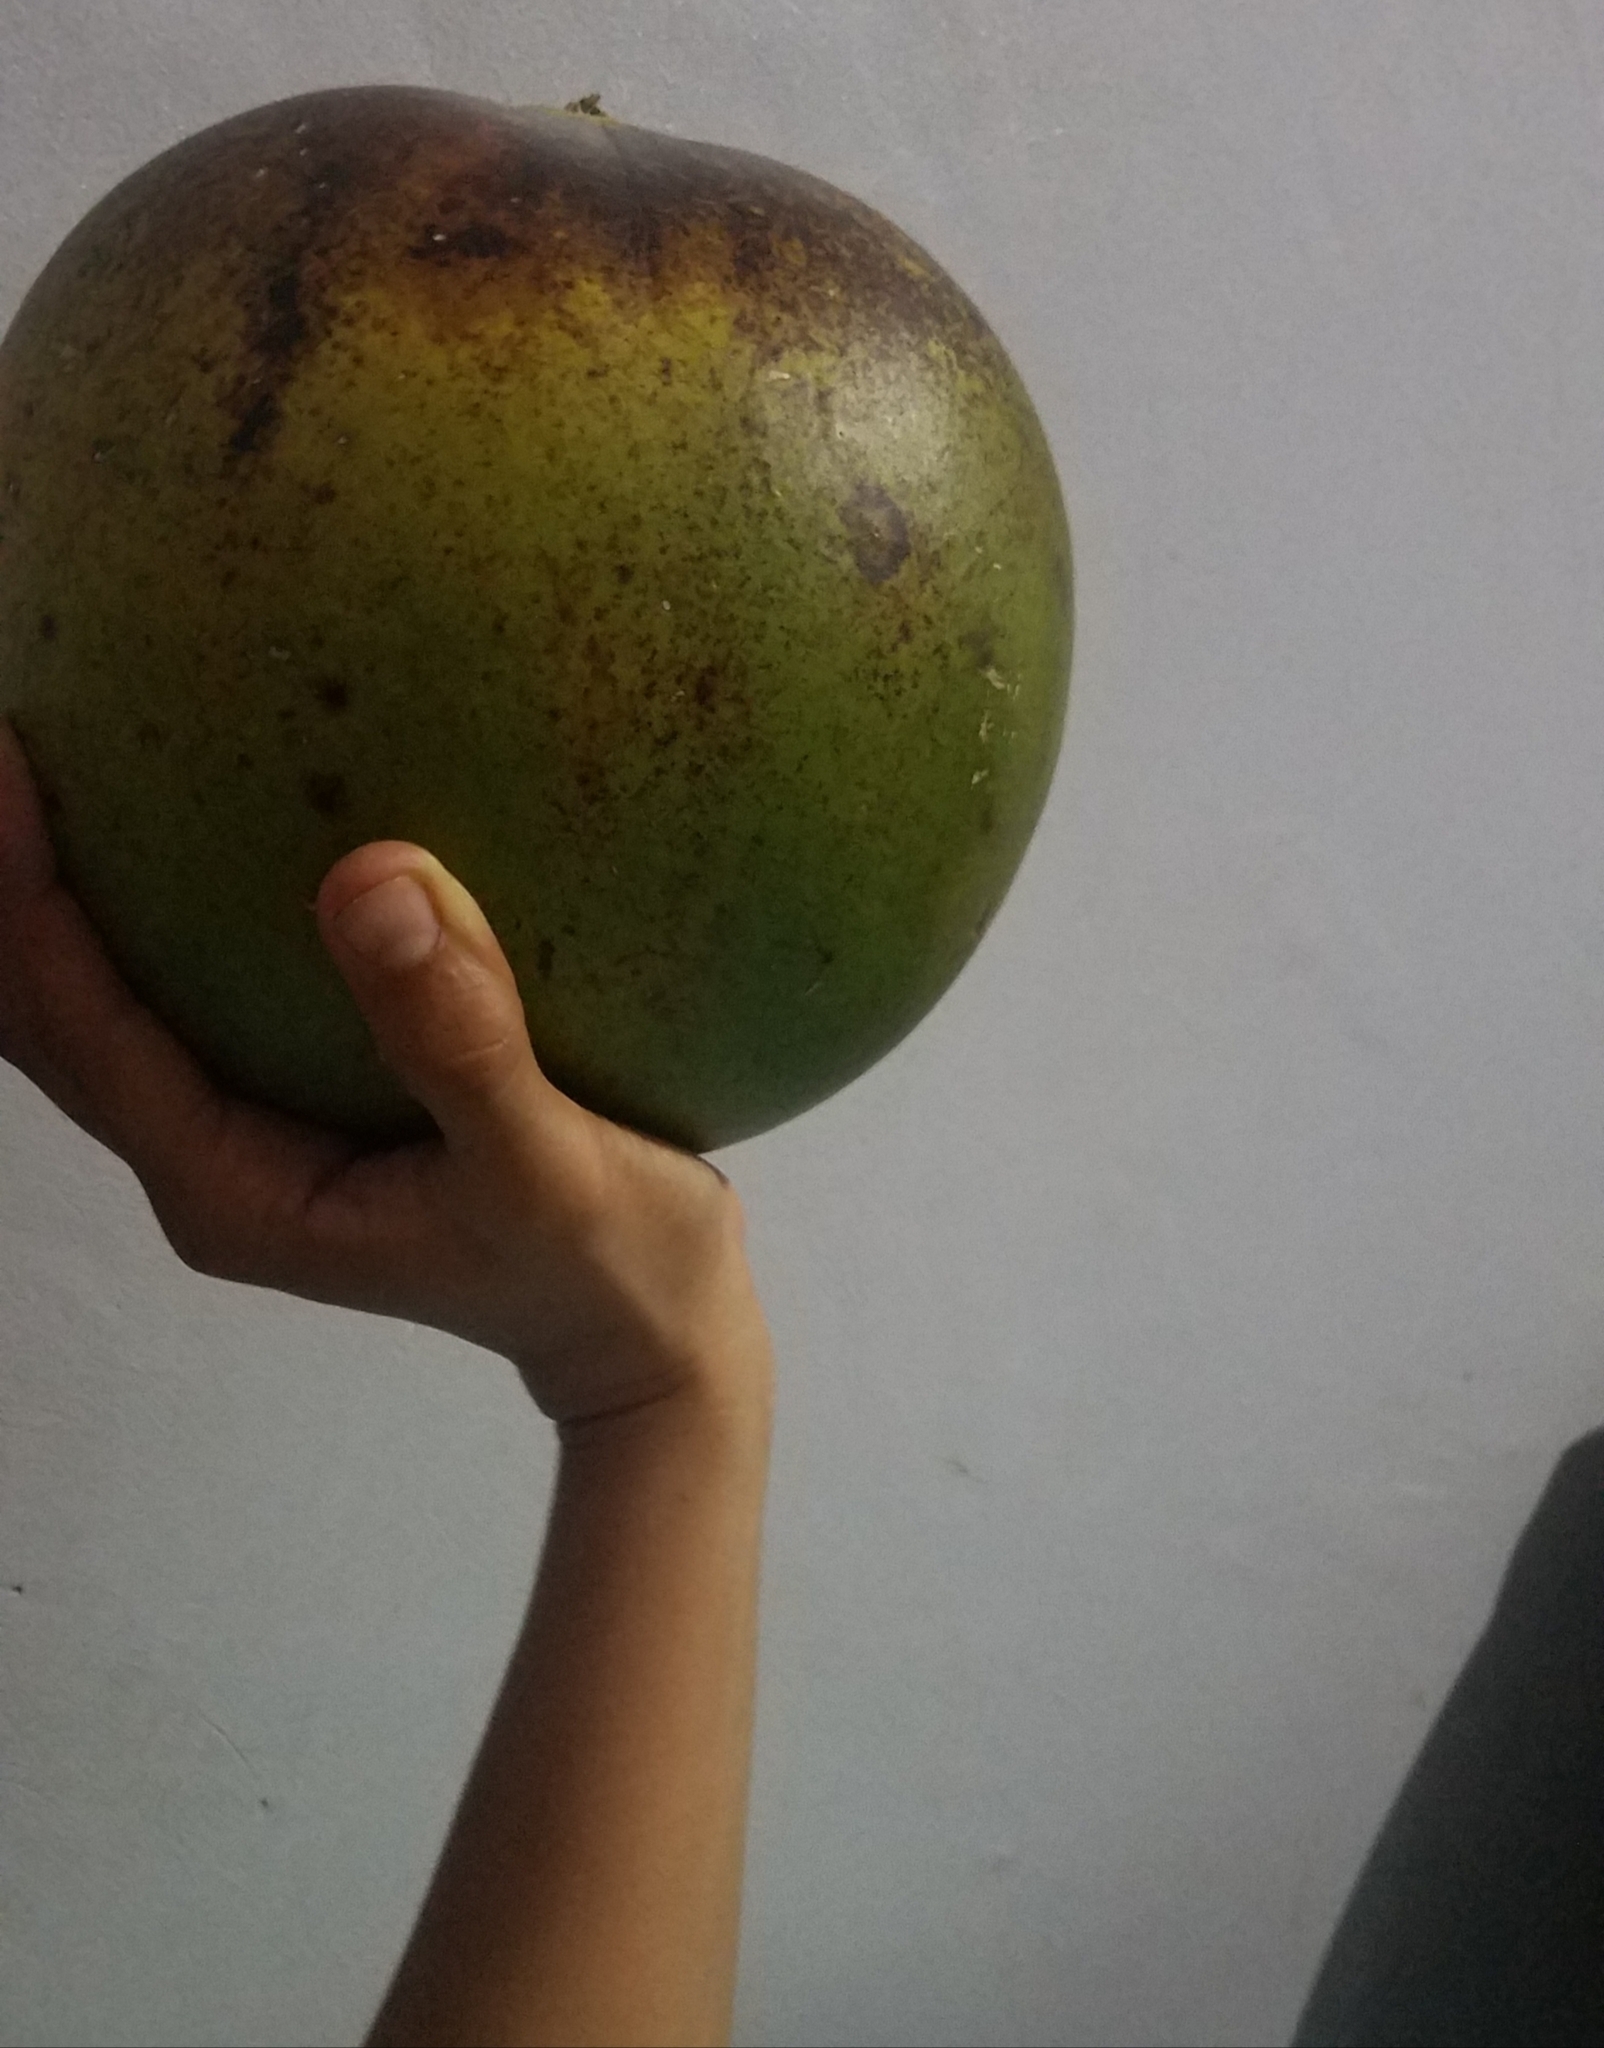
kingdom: Plantae
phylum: Tracheophyta
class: Magnoliopsida
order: Lamiales
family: Bignoniaceae
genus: Crescentia
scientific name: Crescentia cujete
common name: Calabash
